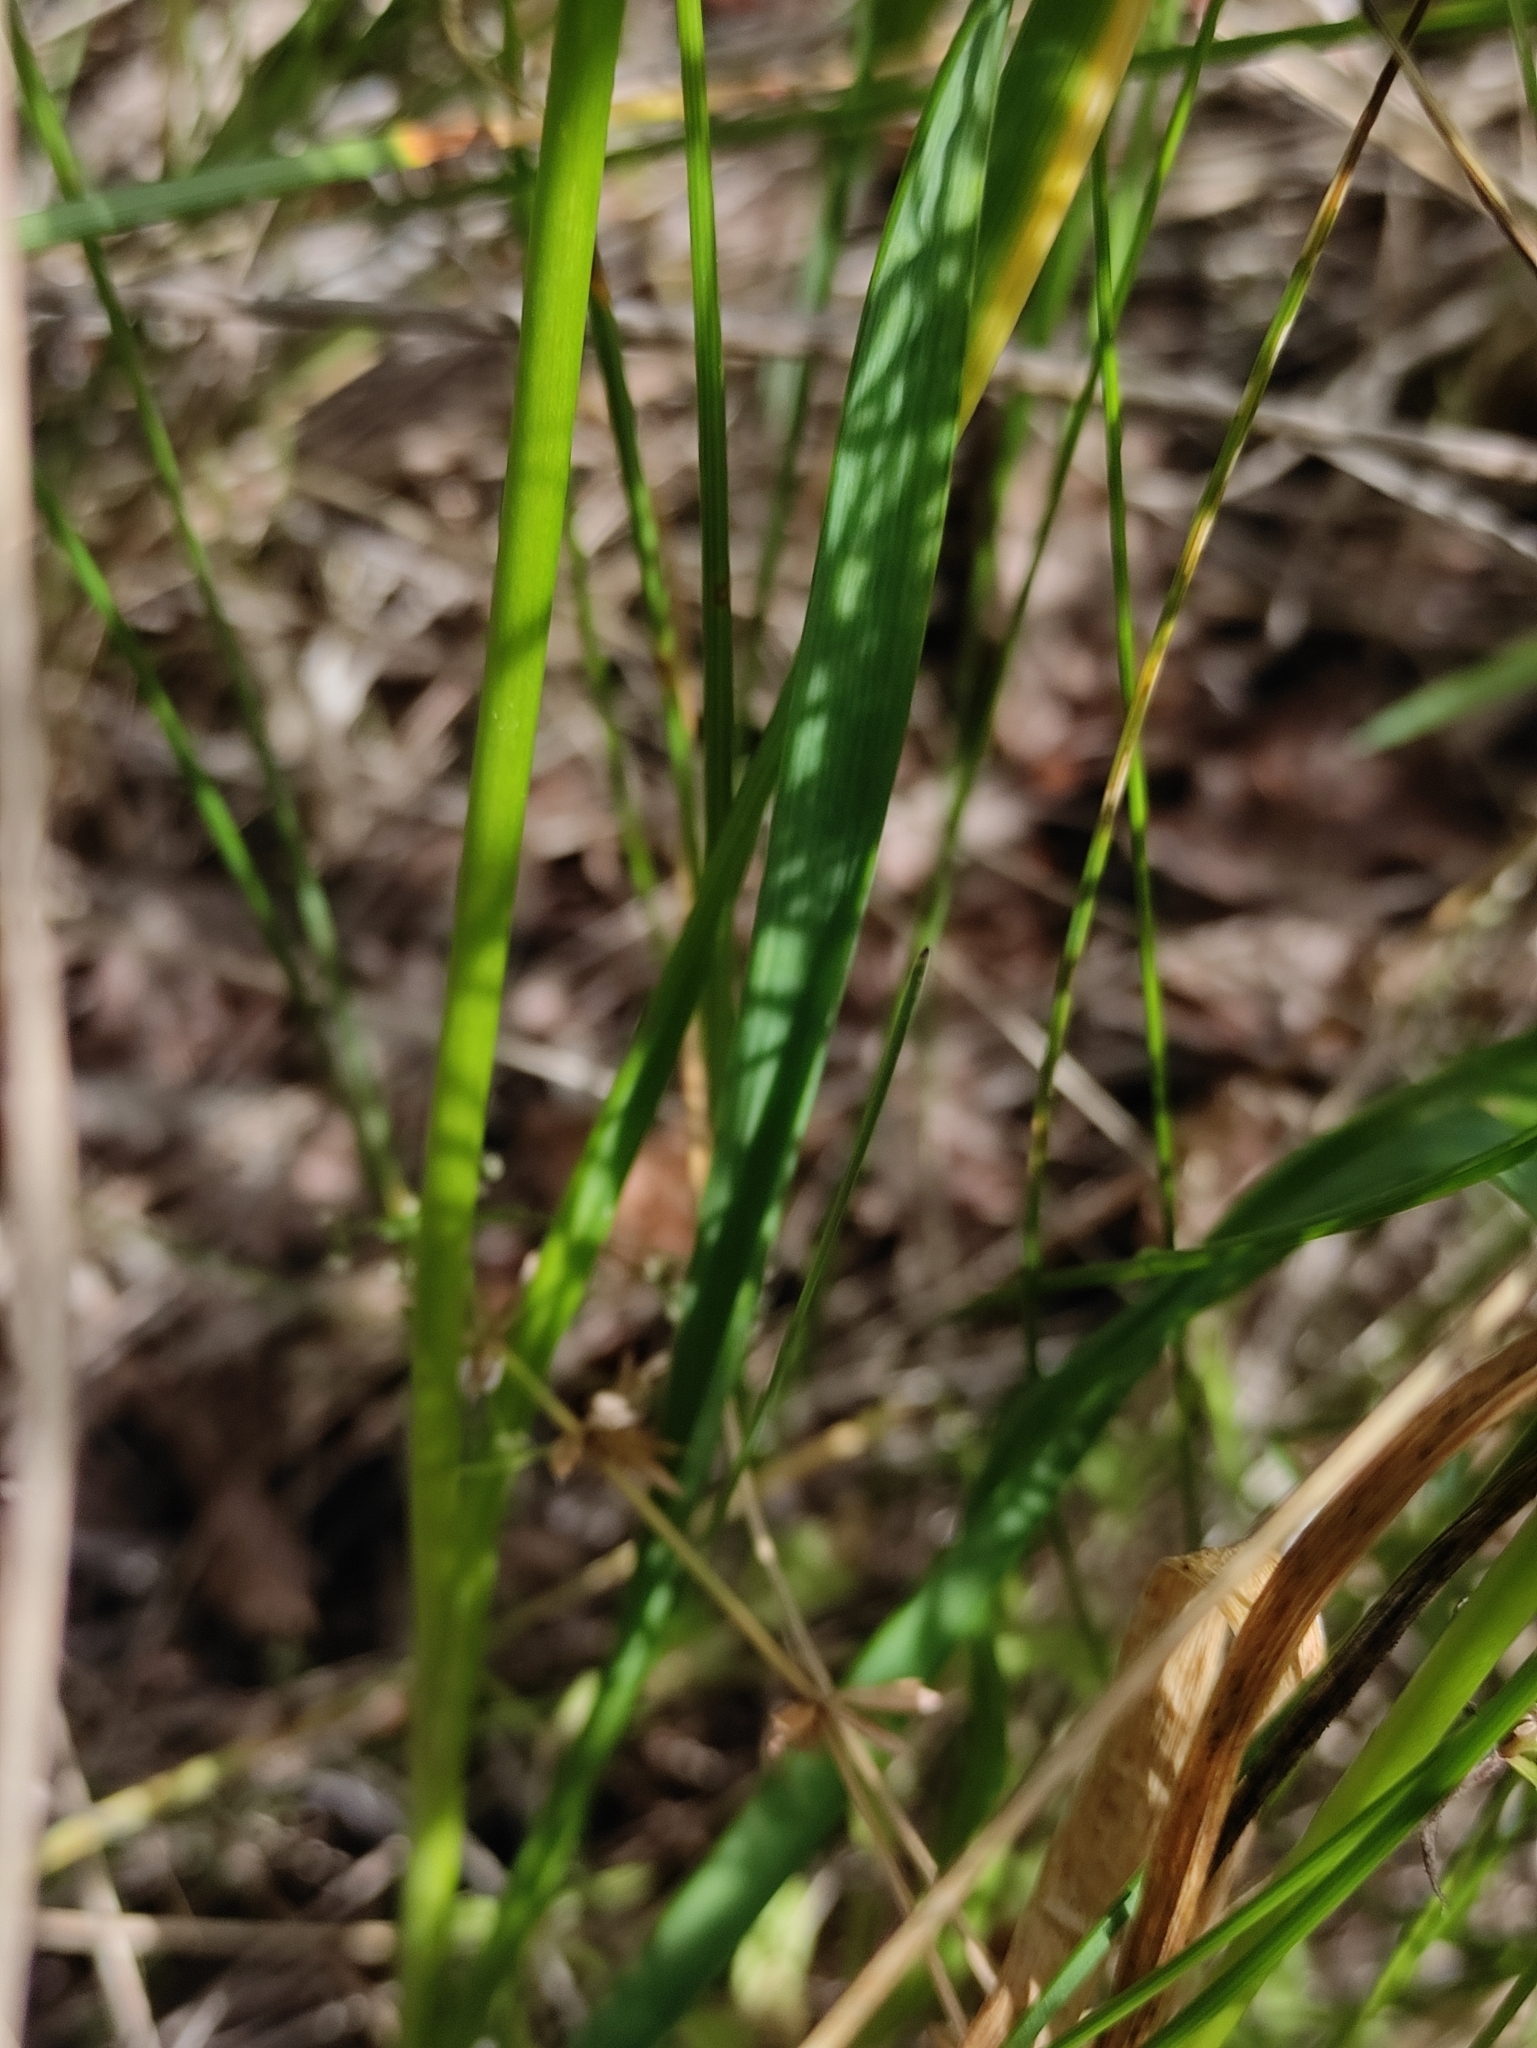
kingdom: Plantae
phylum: Tracheophyta
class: Liliopsida
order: Asparagales
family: Amaryllidaceae
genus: Allium
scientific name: Allium splendens
